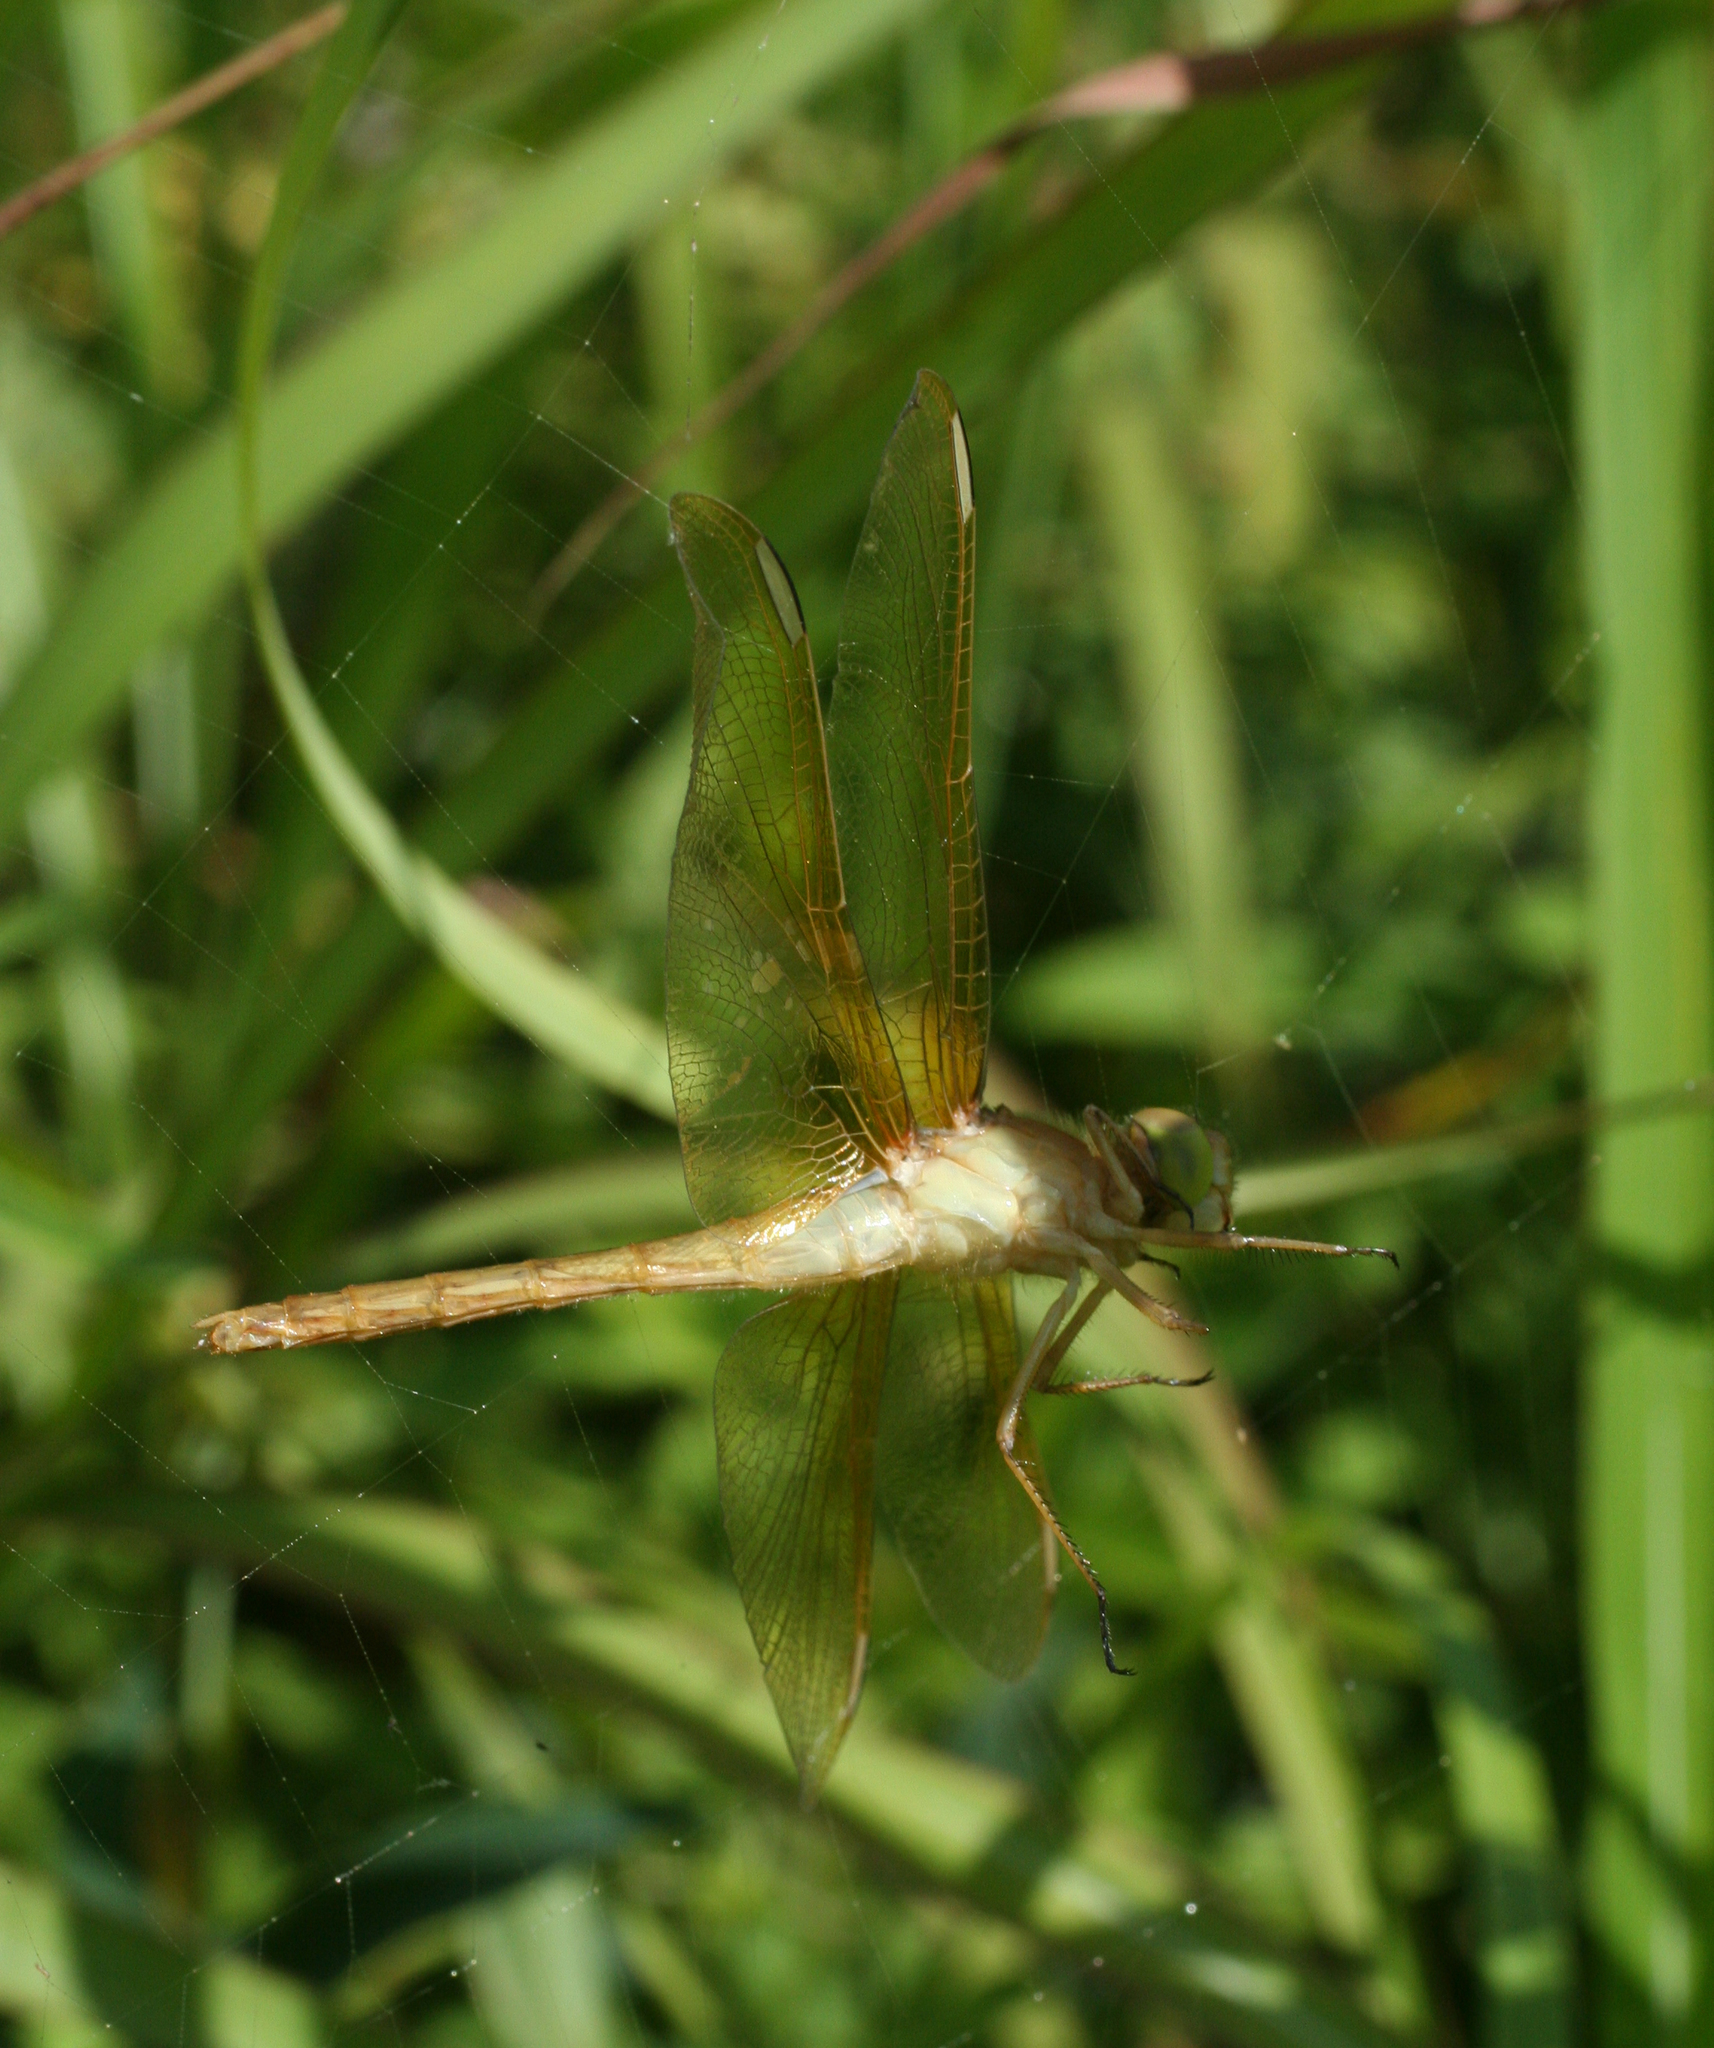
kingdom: Animalia
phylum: Arthropoda
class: Insecta
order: Odonata
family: Libellulidae
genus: Sympetrum
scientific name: Sympetrum uniforme
